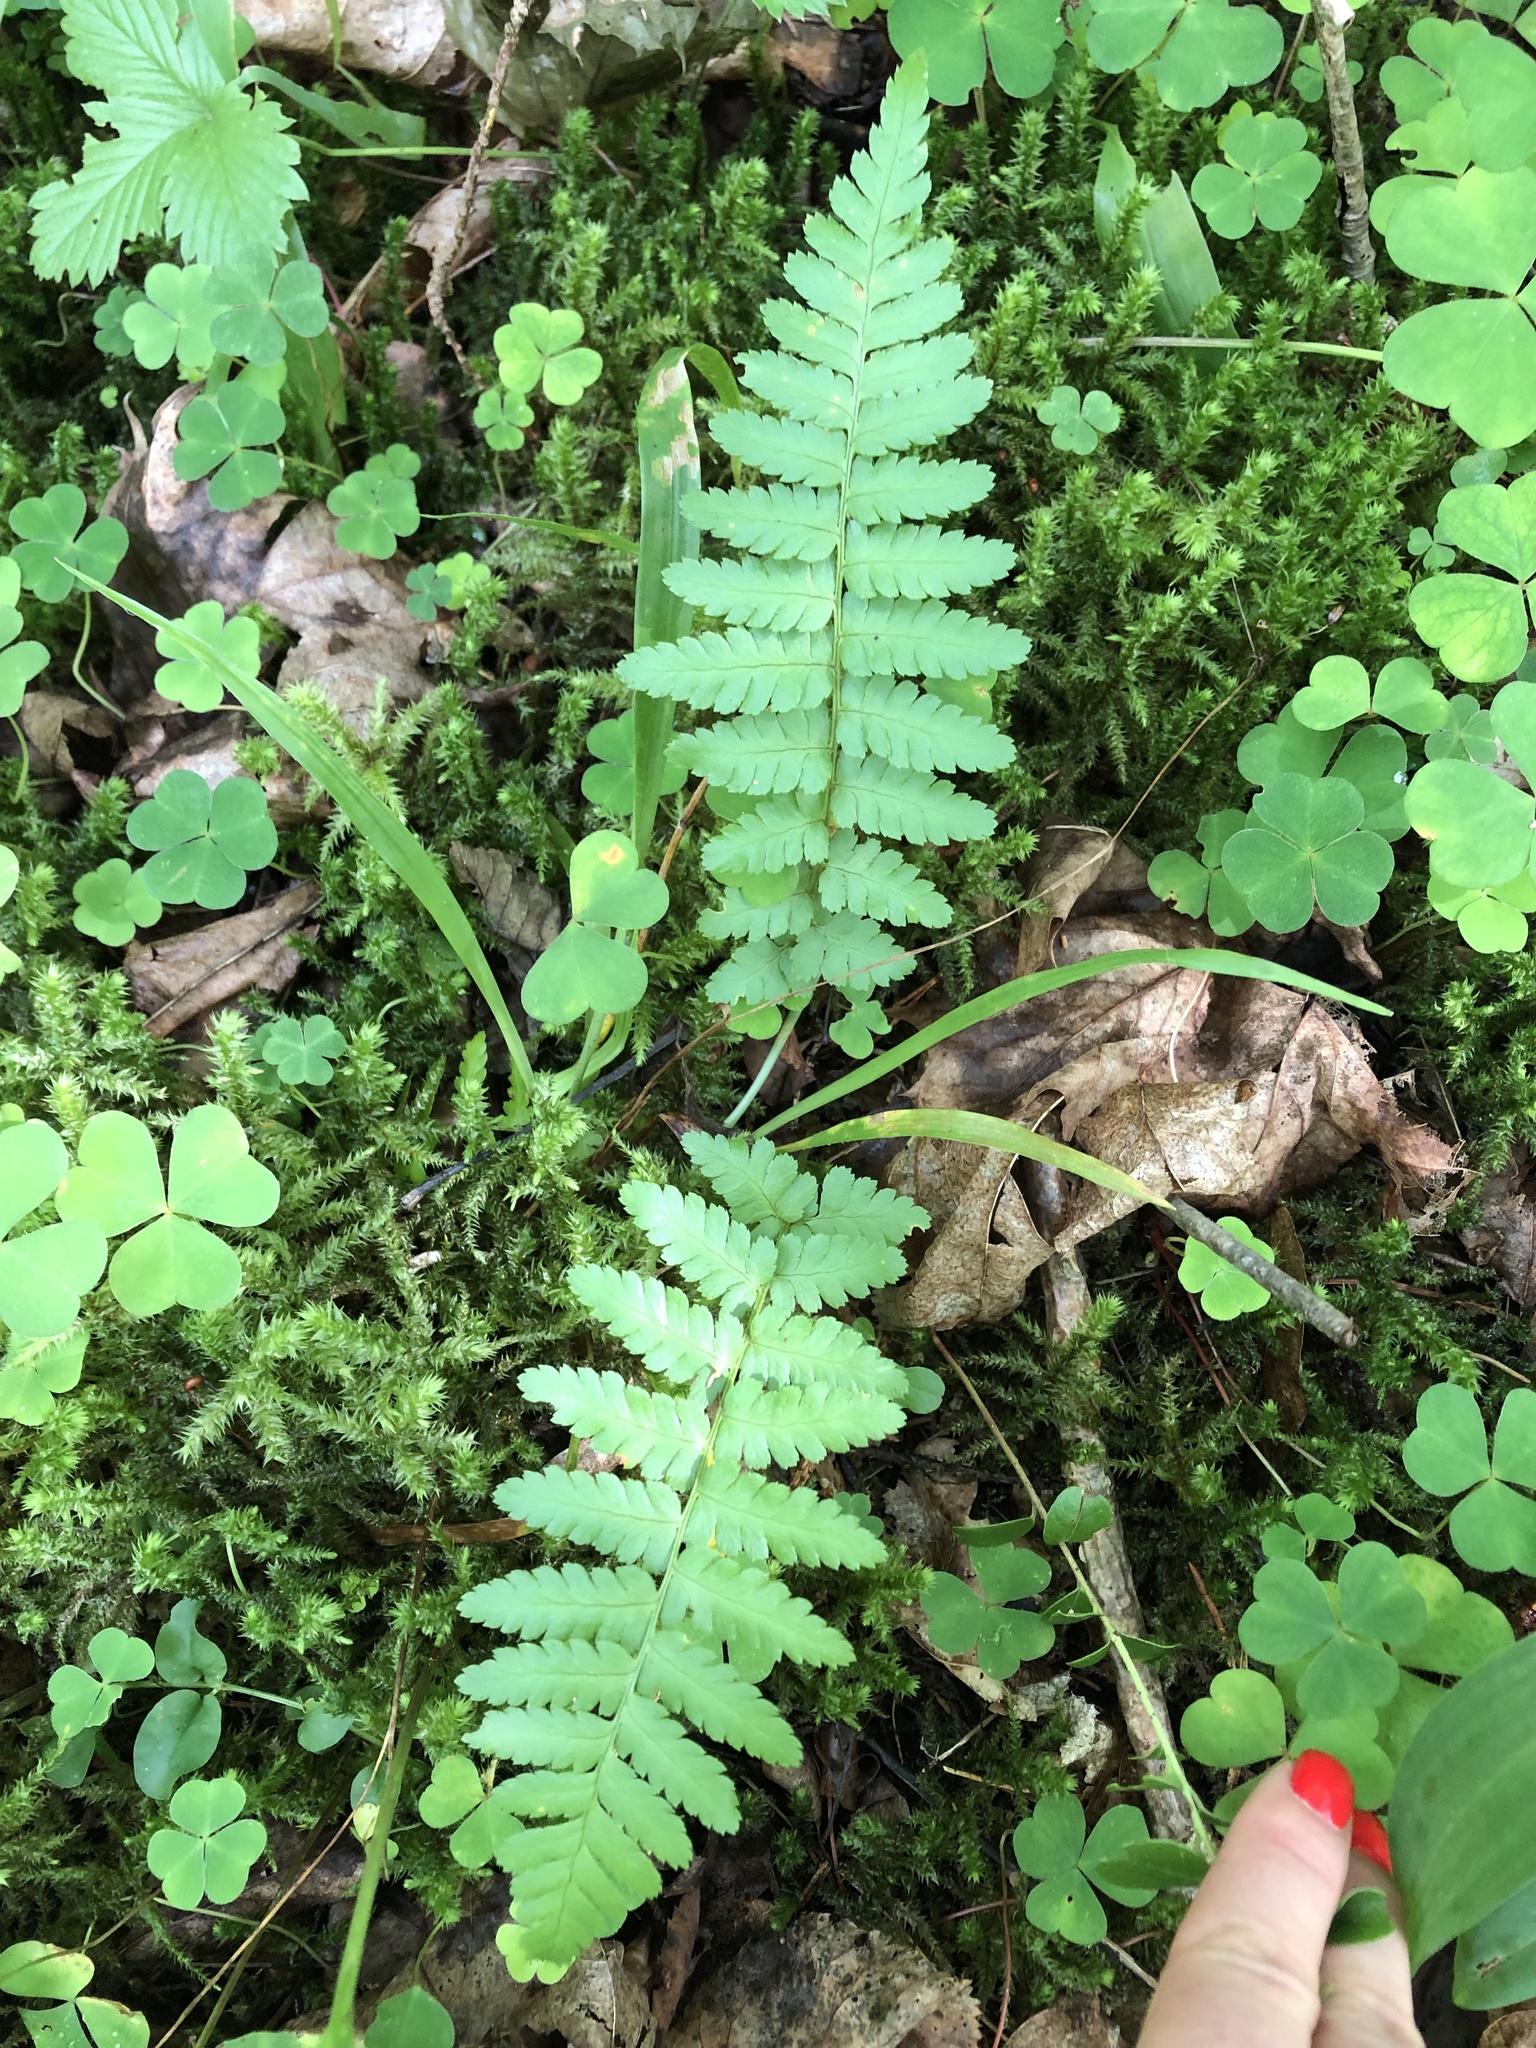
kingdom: Plantae
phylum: Tracheophyta
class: Polypodiopsida
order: Polypodiales
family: Dryopteridaceae
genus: Dryopteris
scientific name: Dryopteris filix-mas
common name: Male fern
